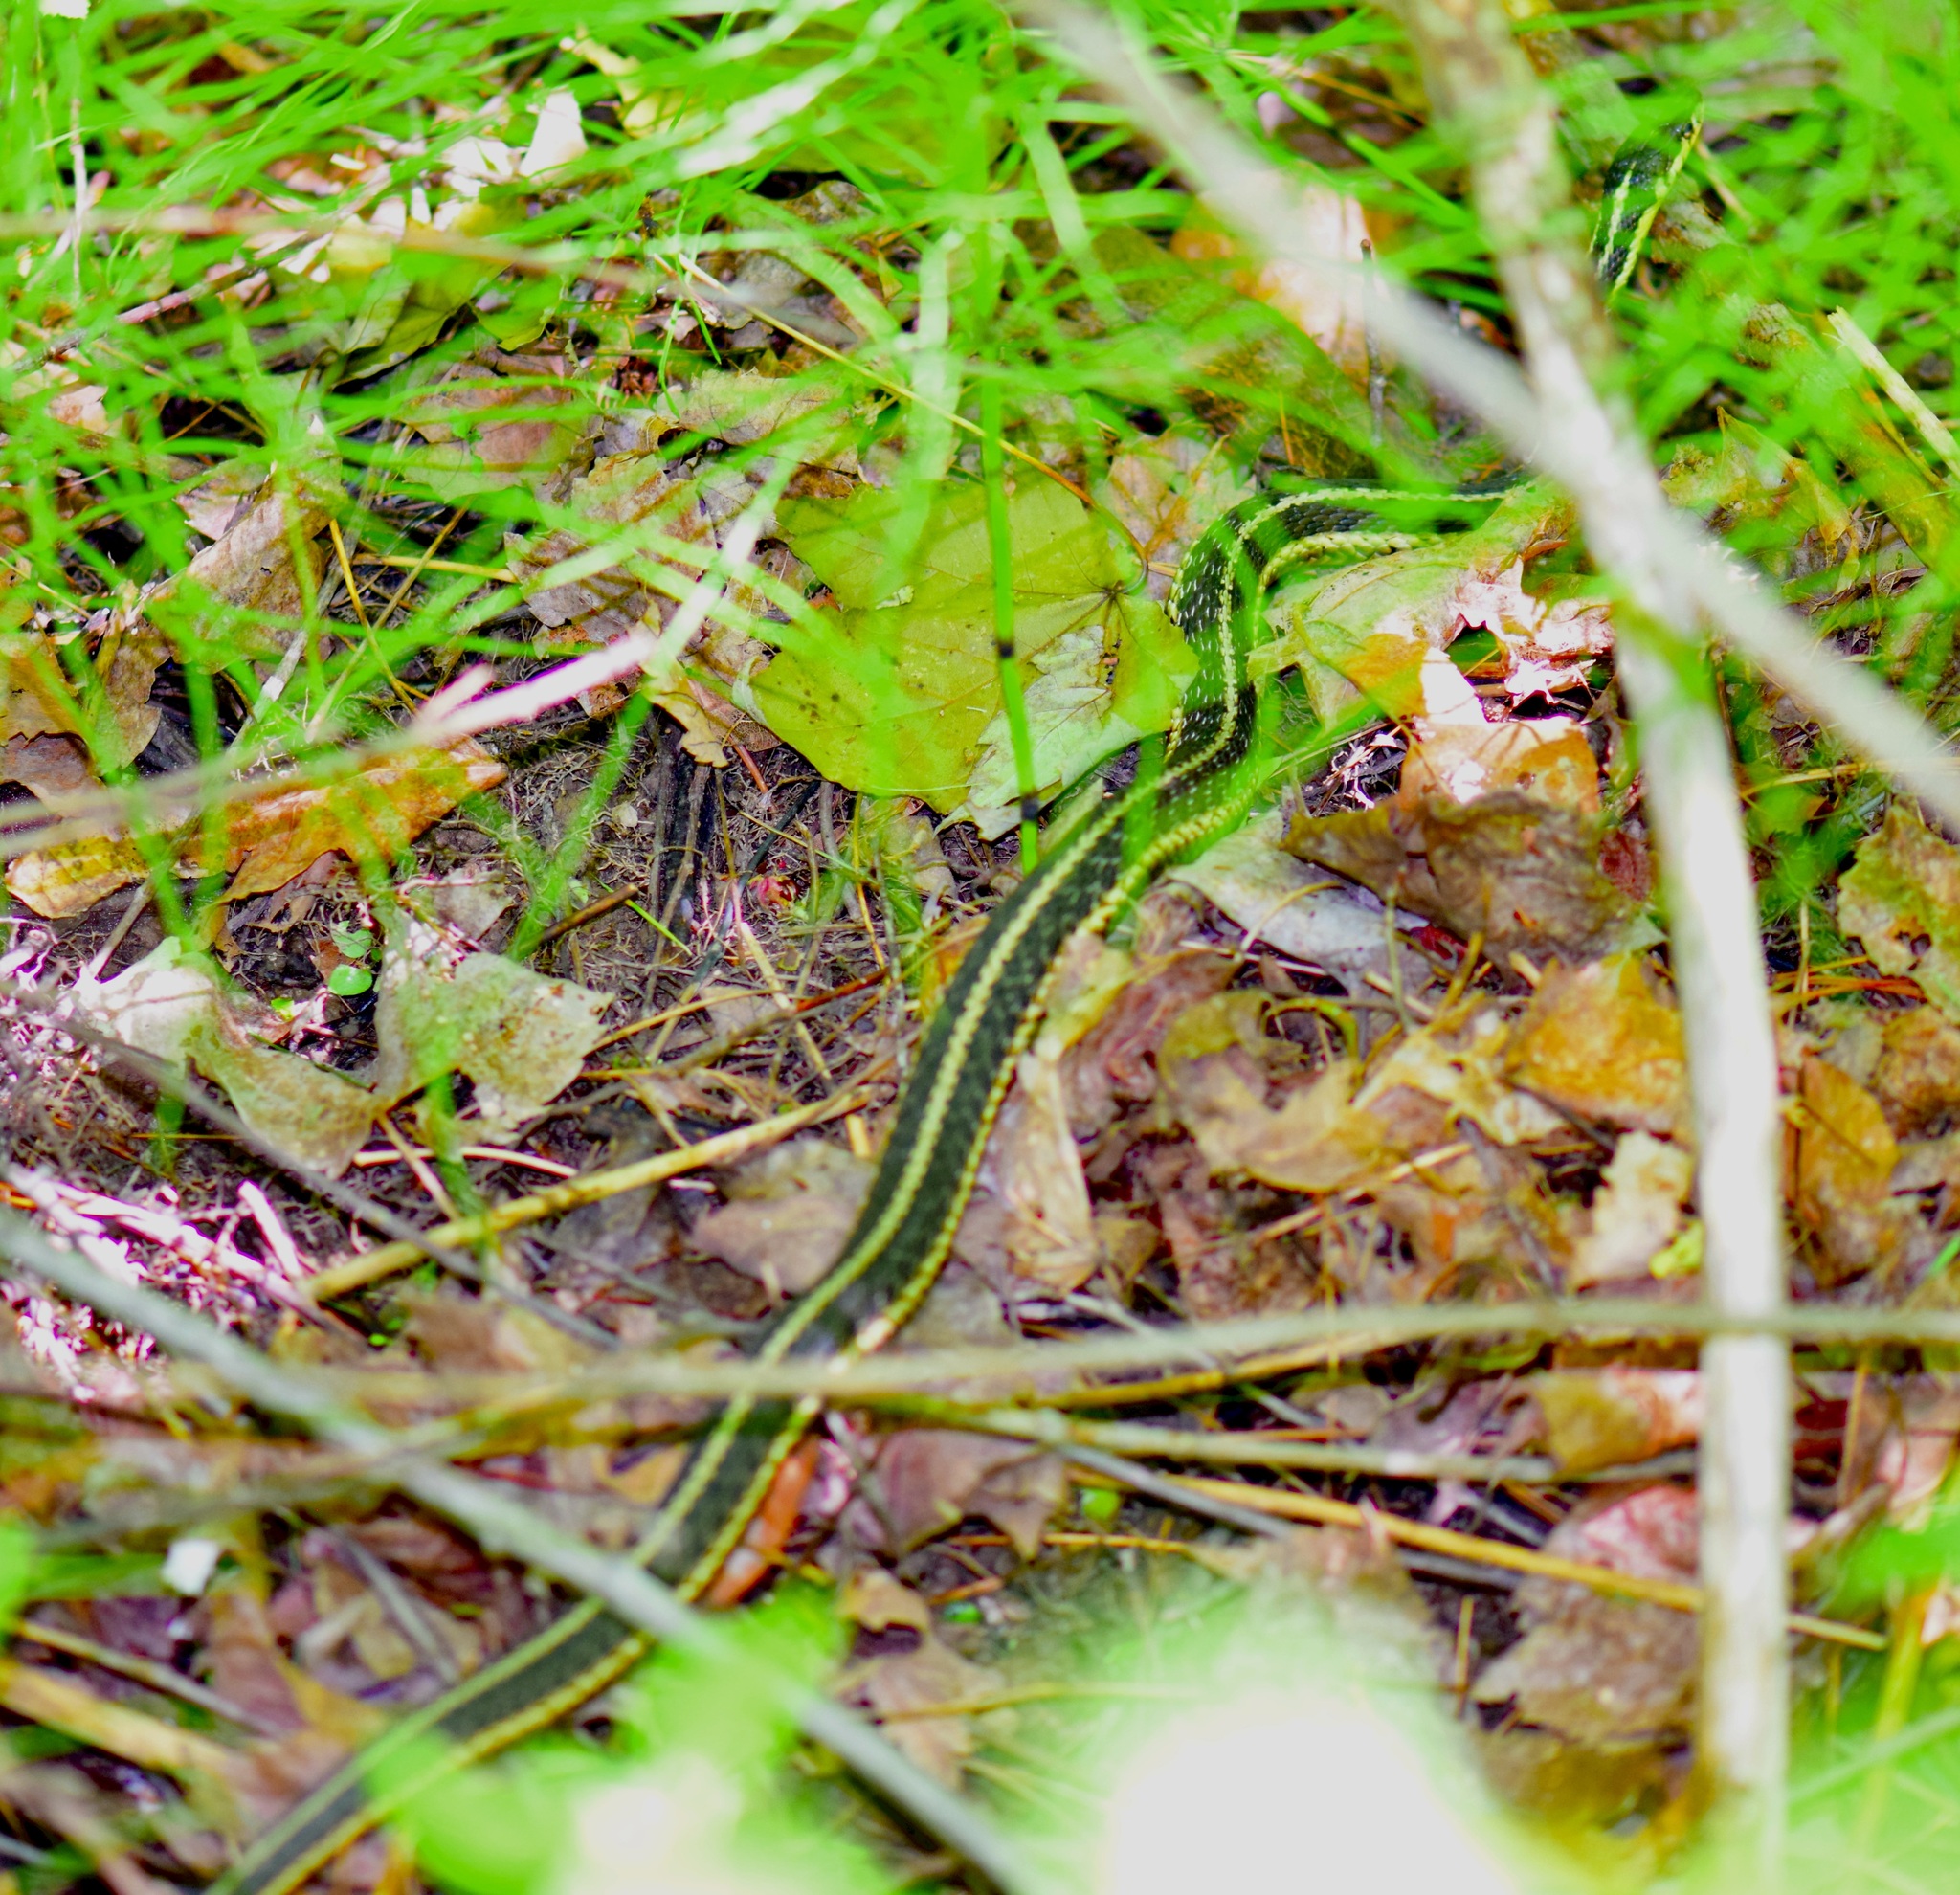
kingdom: Animalia
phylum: Chordata
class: Squamata
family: Colubridae
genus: Thamnophis
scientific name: Thamnophis sirtalis
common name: Common garter snake
